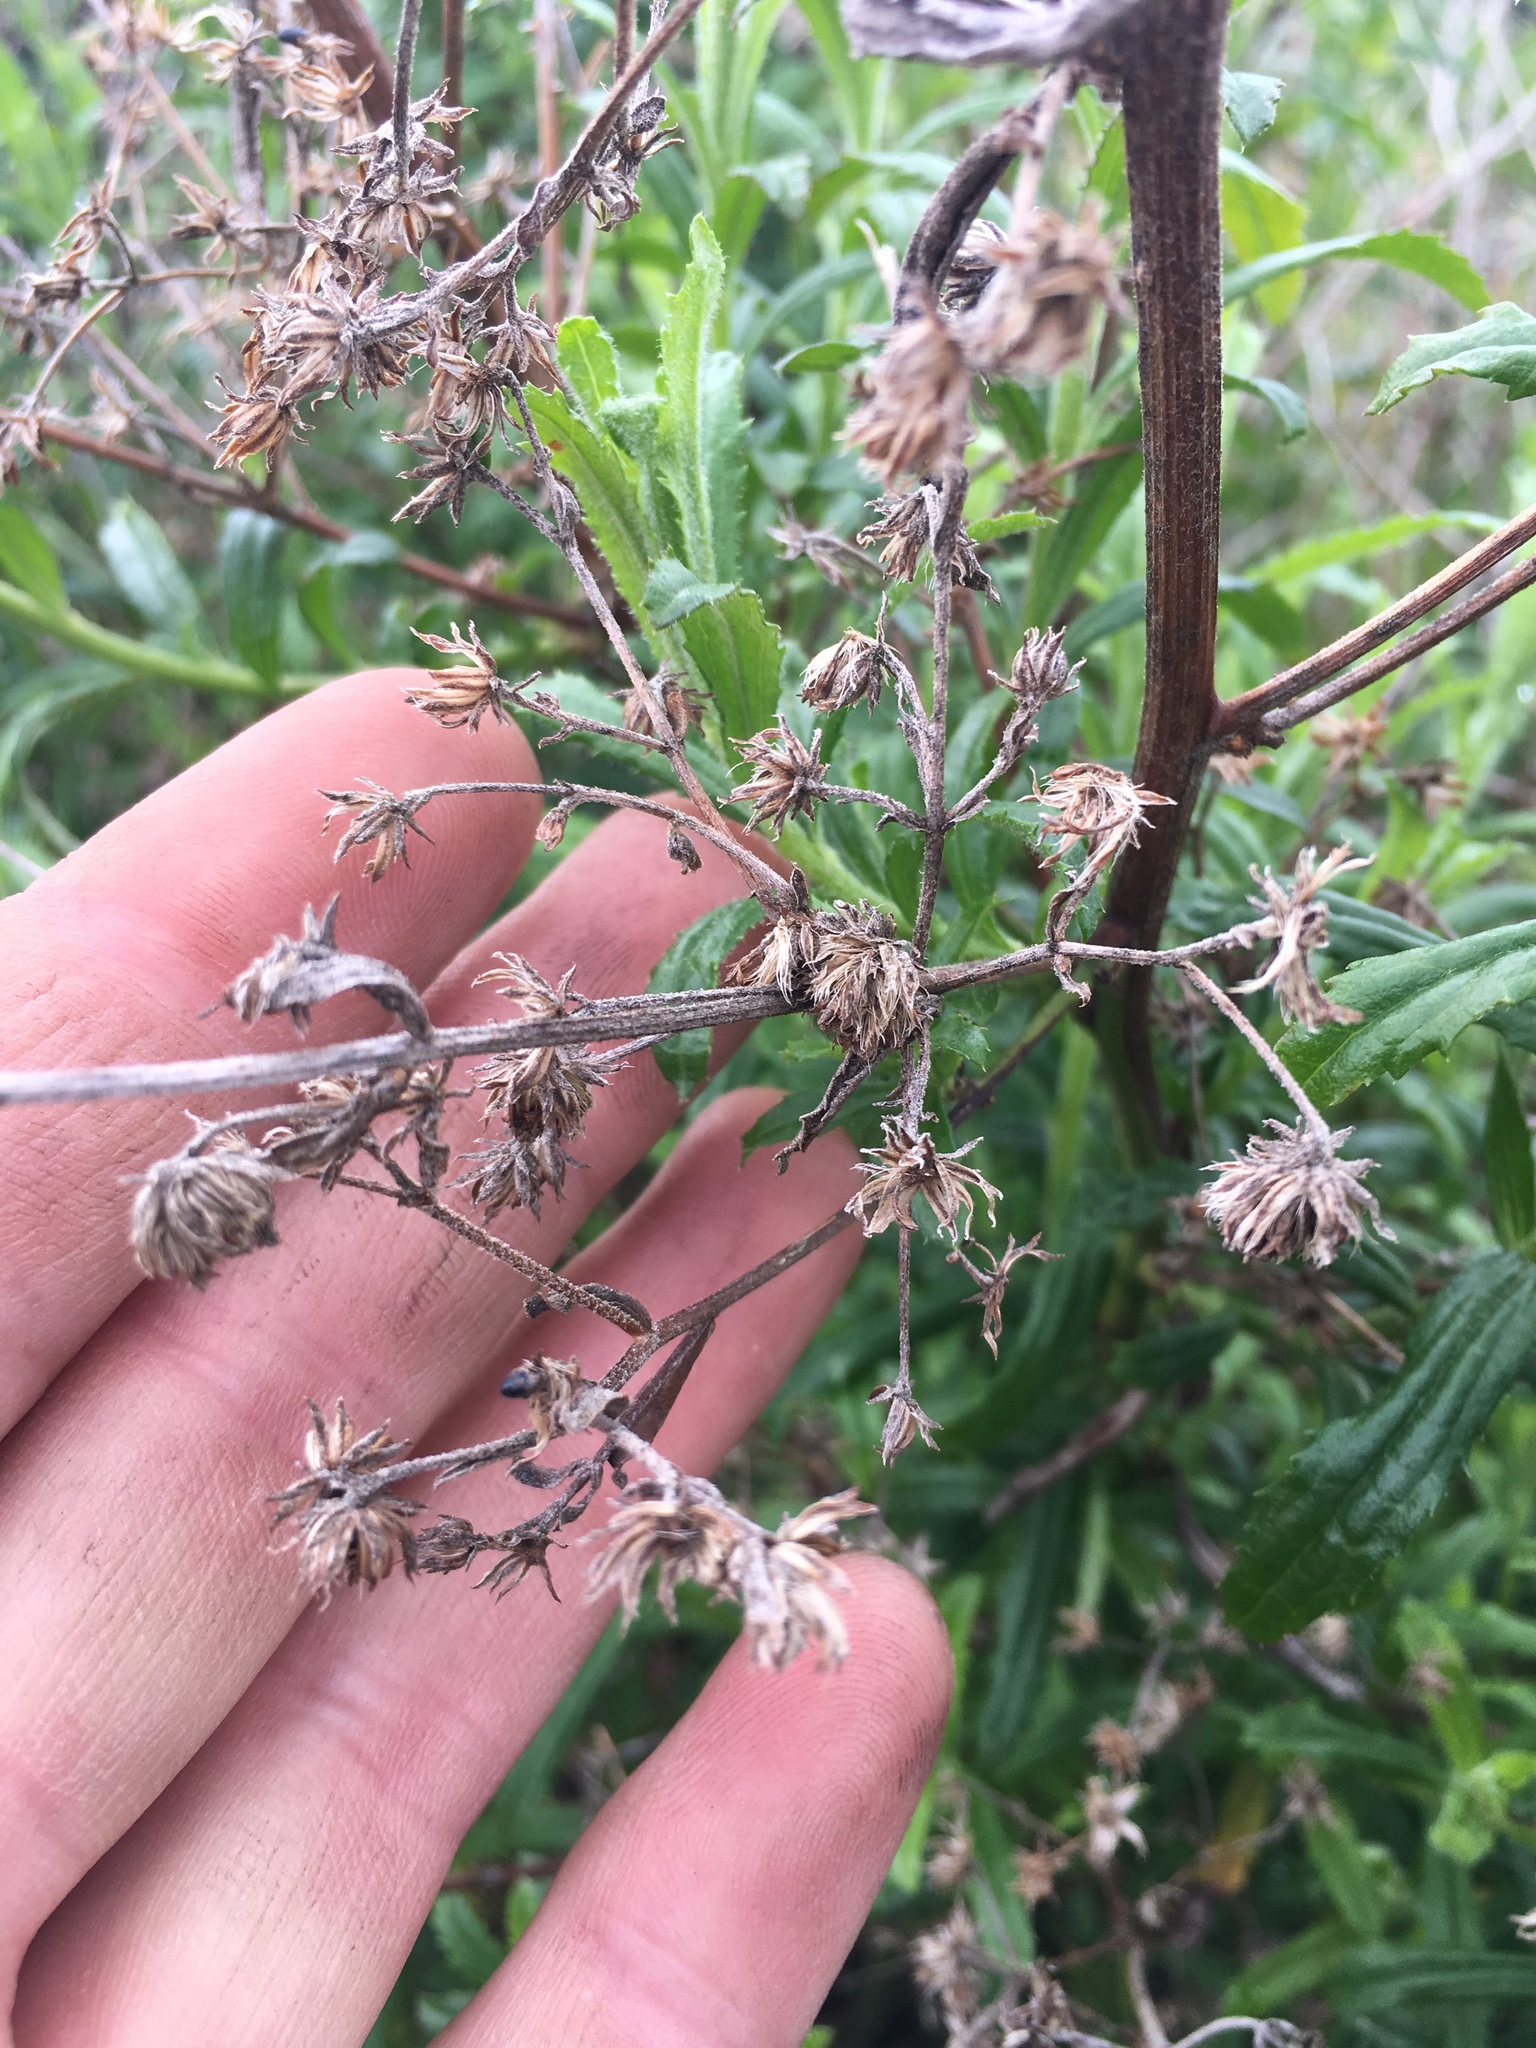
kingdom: Plantae
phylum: Tracheophyta
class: Magnoliopsida
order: Asterales
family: Asteraceae
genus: Baccharis
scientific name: Baccharis plummerae
